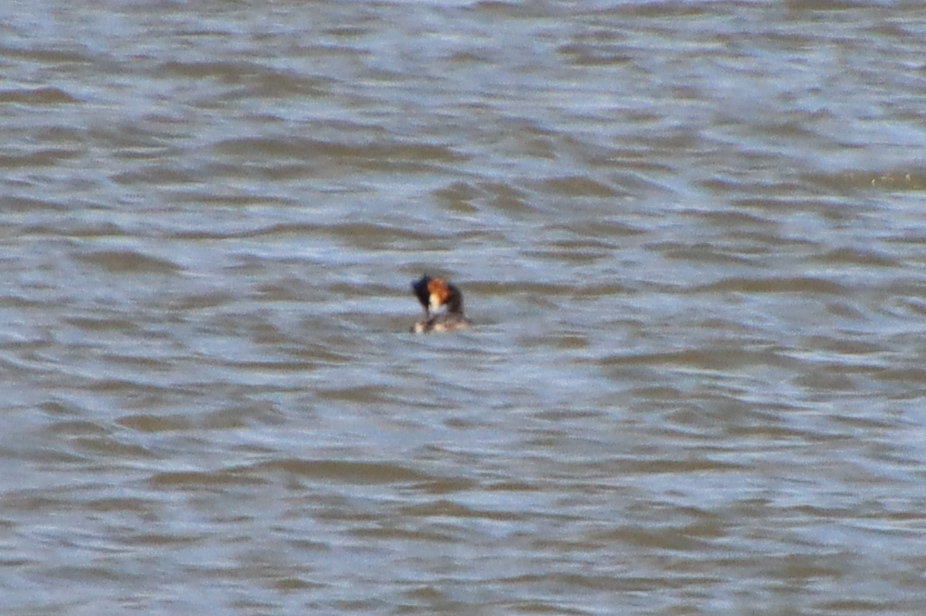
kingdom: Animalia
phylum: Chordata
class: Aves
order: Podicipediformes
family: Podicipedidae
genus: Podiceps
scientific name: Podiceps cristatus
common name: Great crested grebe
